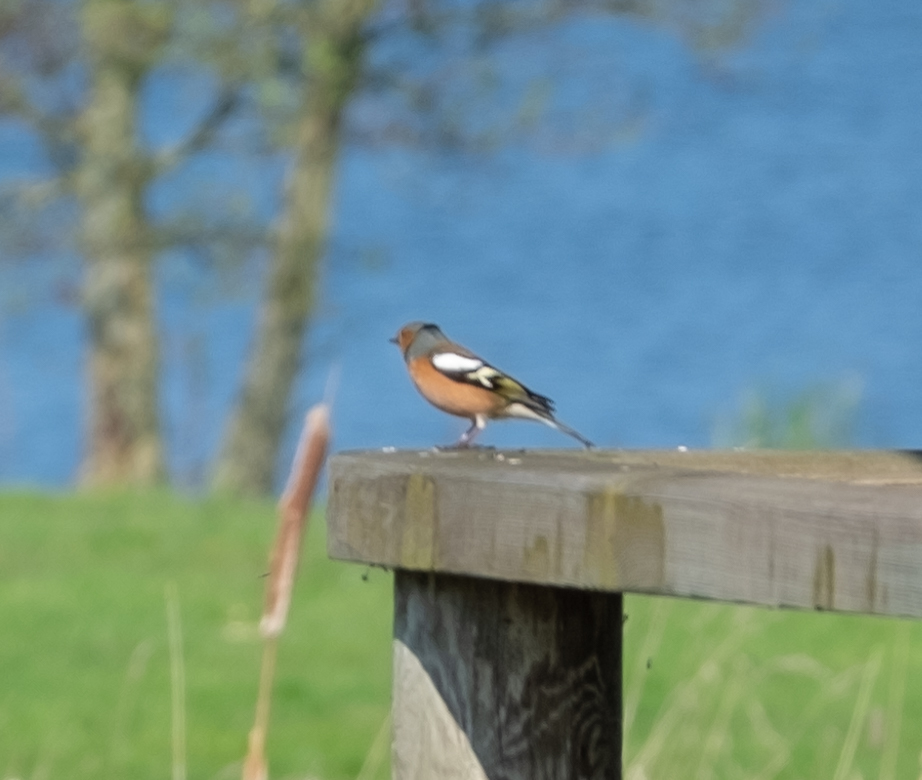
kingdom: Animalia
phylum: Chordata
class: Aves
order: Passeriformes
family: Fringillidae
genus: Fringilla
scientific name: Fringilla coelebs
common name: Common chaffinch
